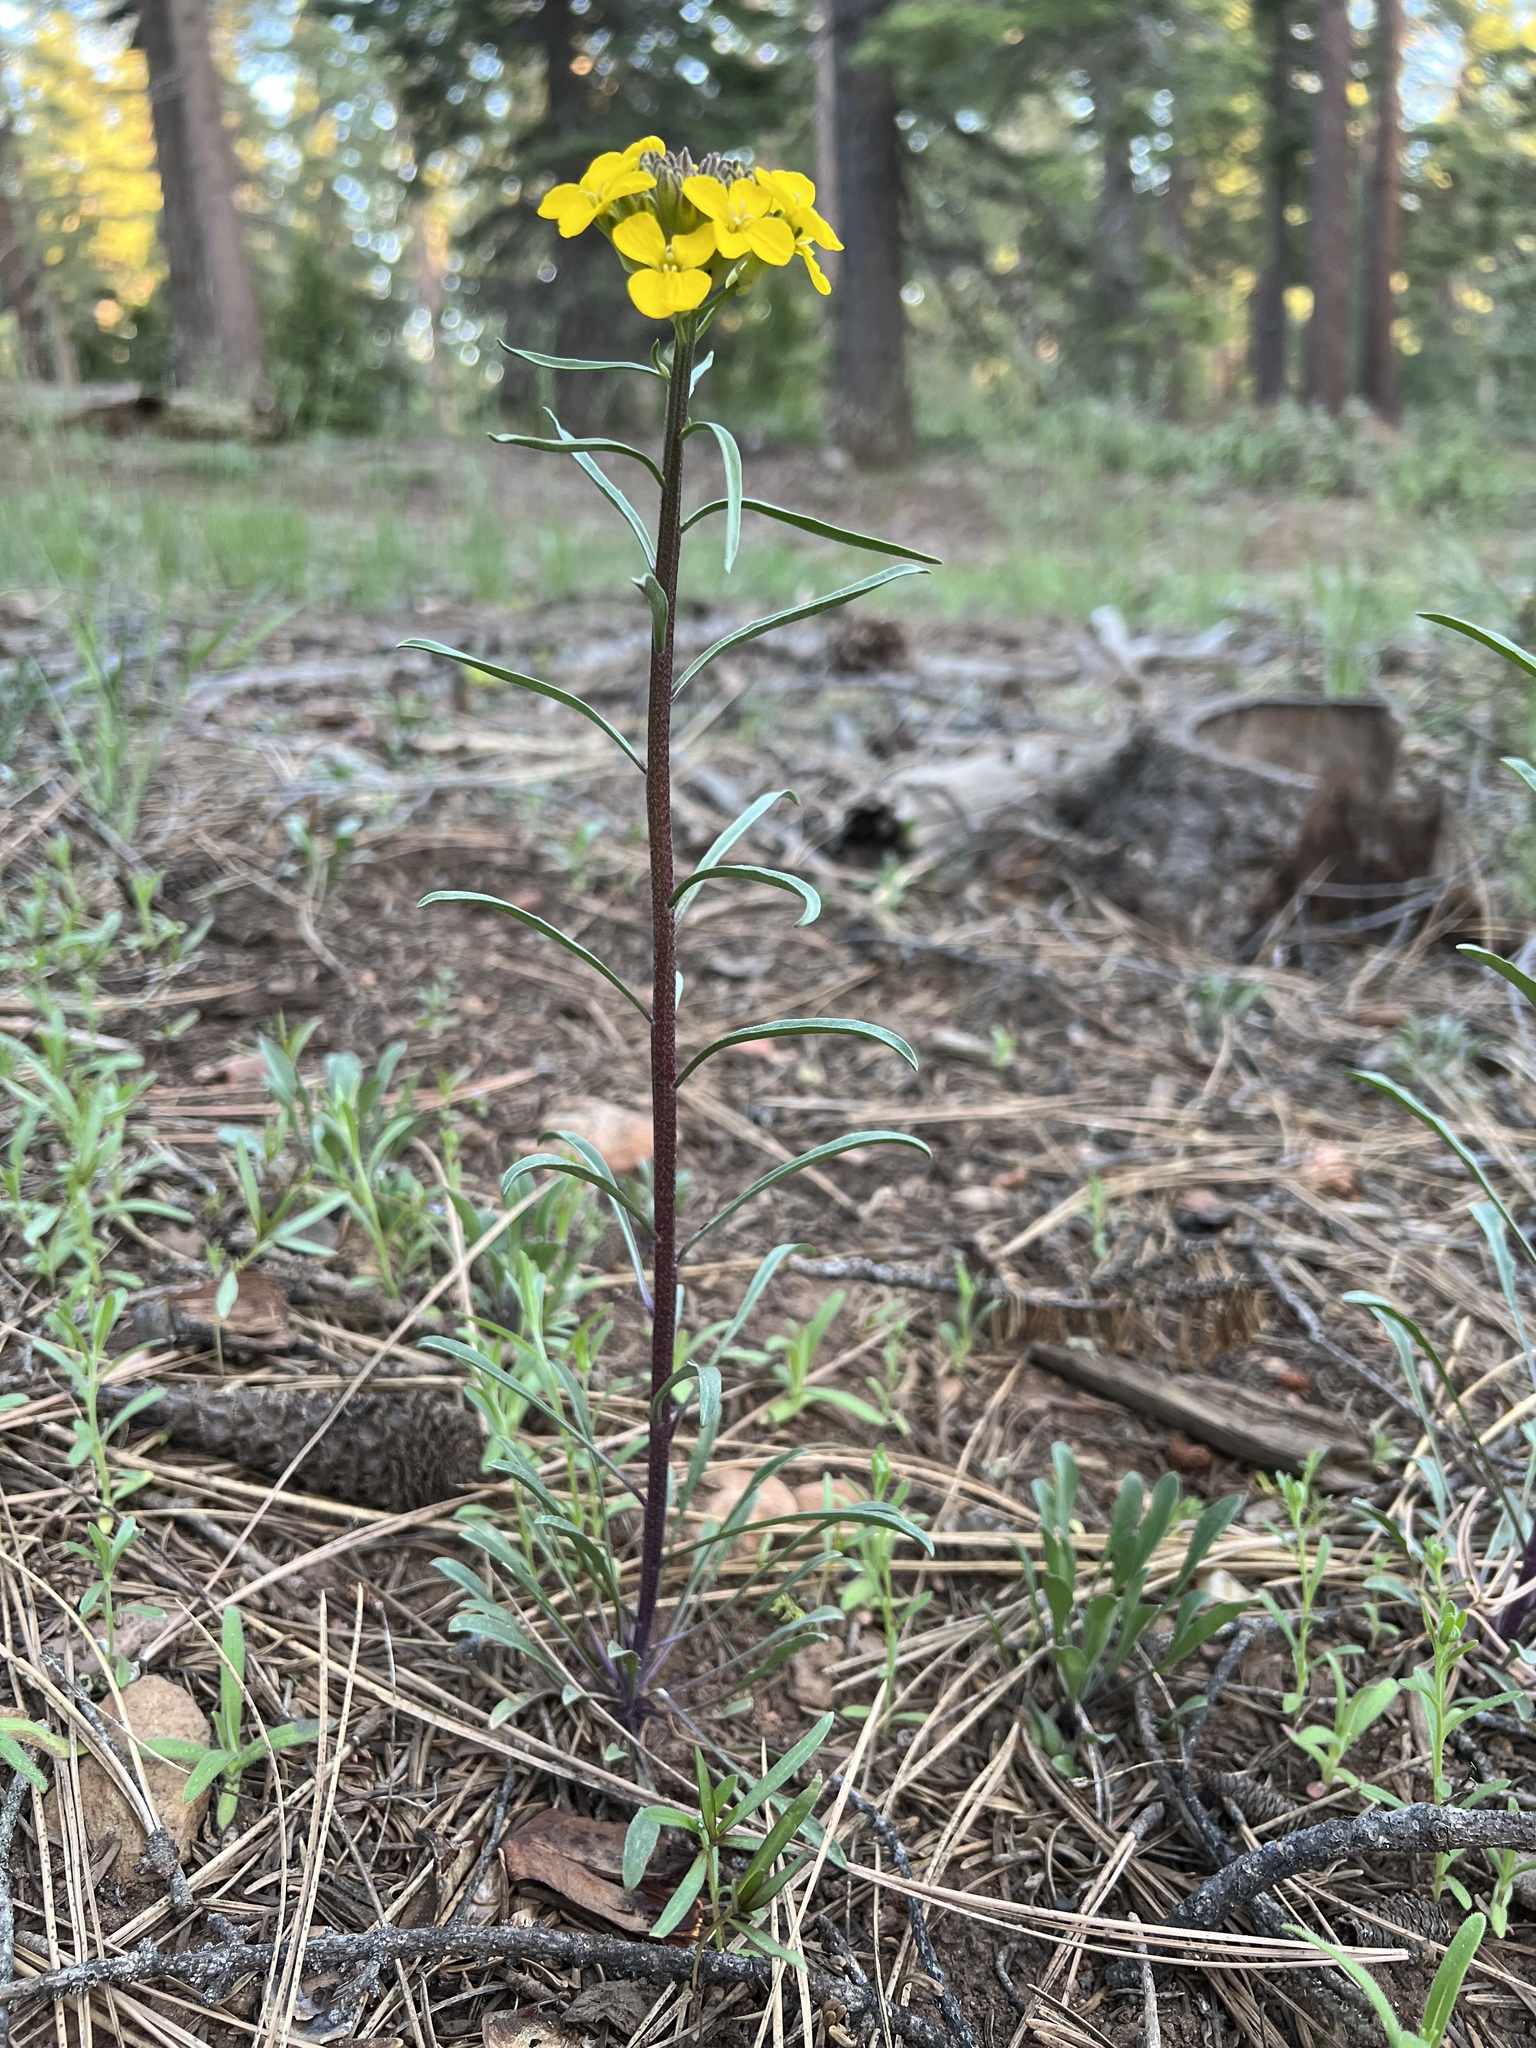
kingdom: Plantae
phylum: Tracheophyta
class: Magnoliopsida
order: Brassicales
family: Brassicaceae
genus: Erysimum
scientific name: Erysimum capitatum
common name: Western wallflower
